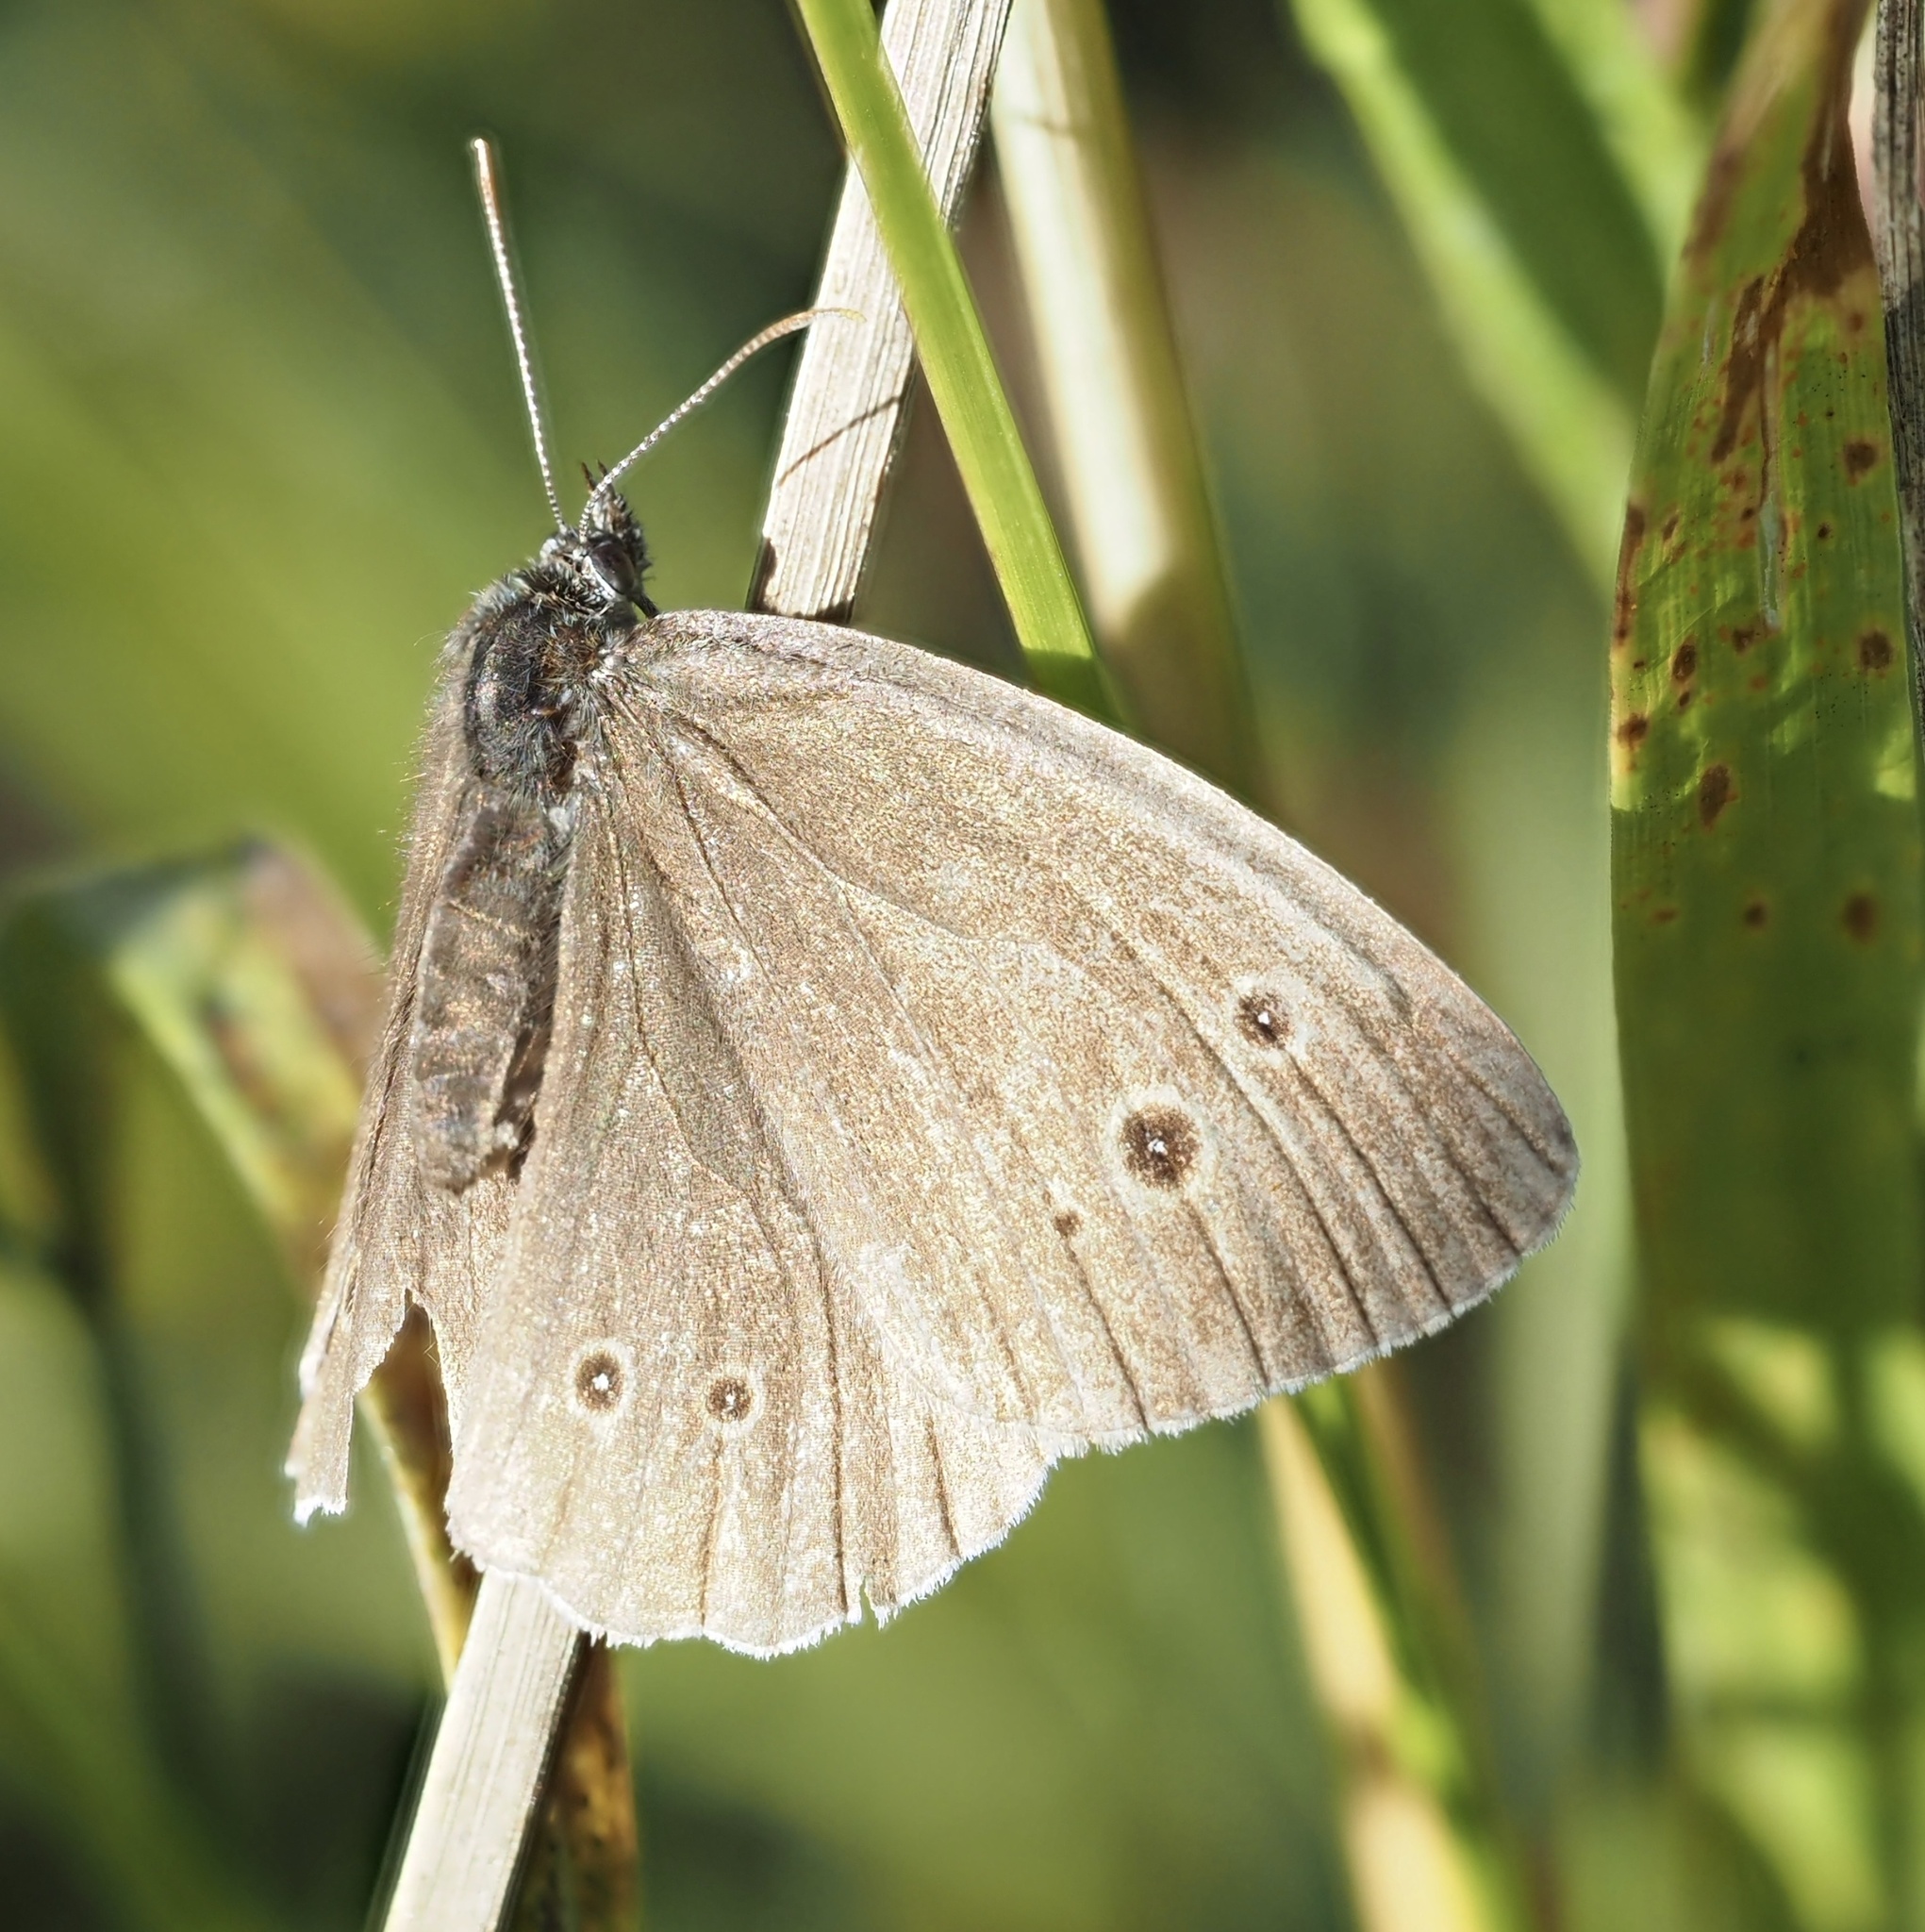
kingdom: Animalia
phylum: Arthropoda
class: Insecta
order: Lepidoptera
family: Nymphalidae
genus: Aphantopus
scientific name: Aphantopus hyperantus
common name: Ringlet
